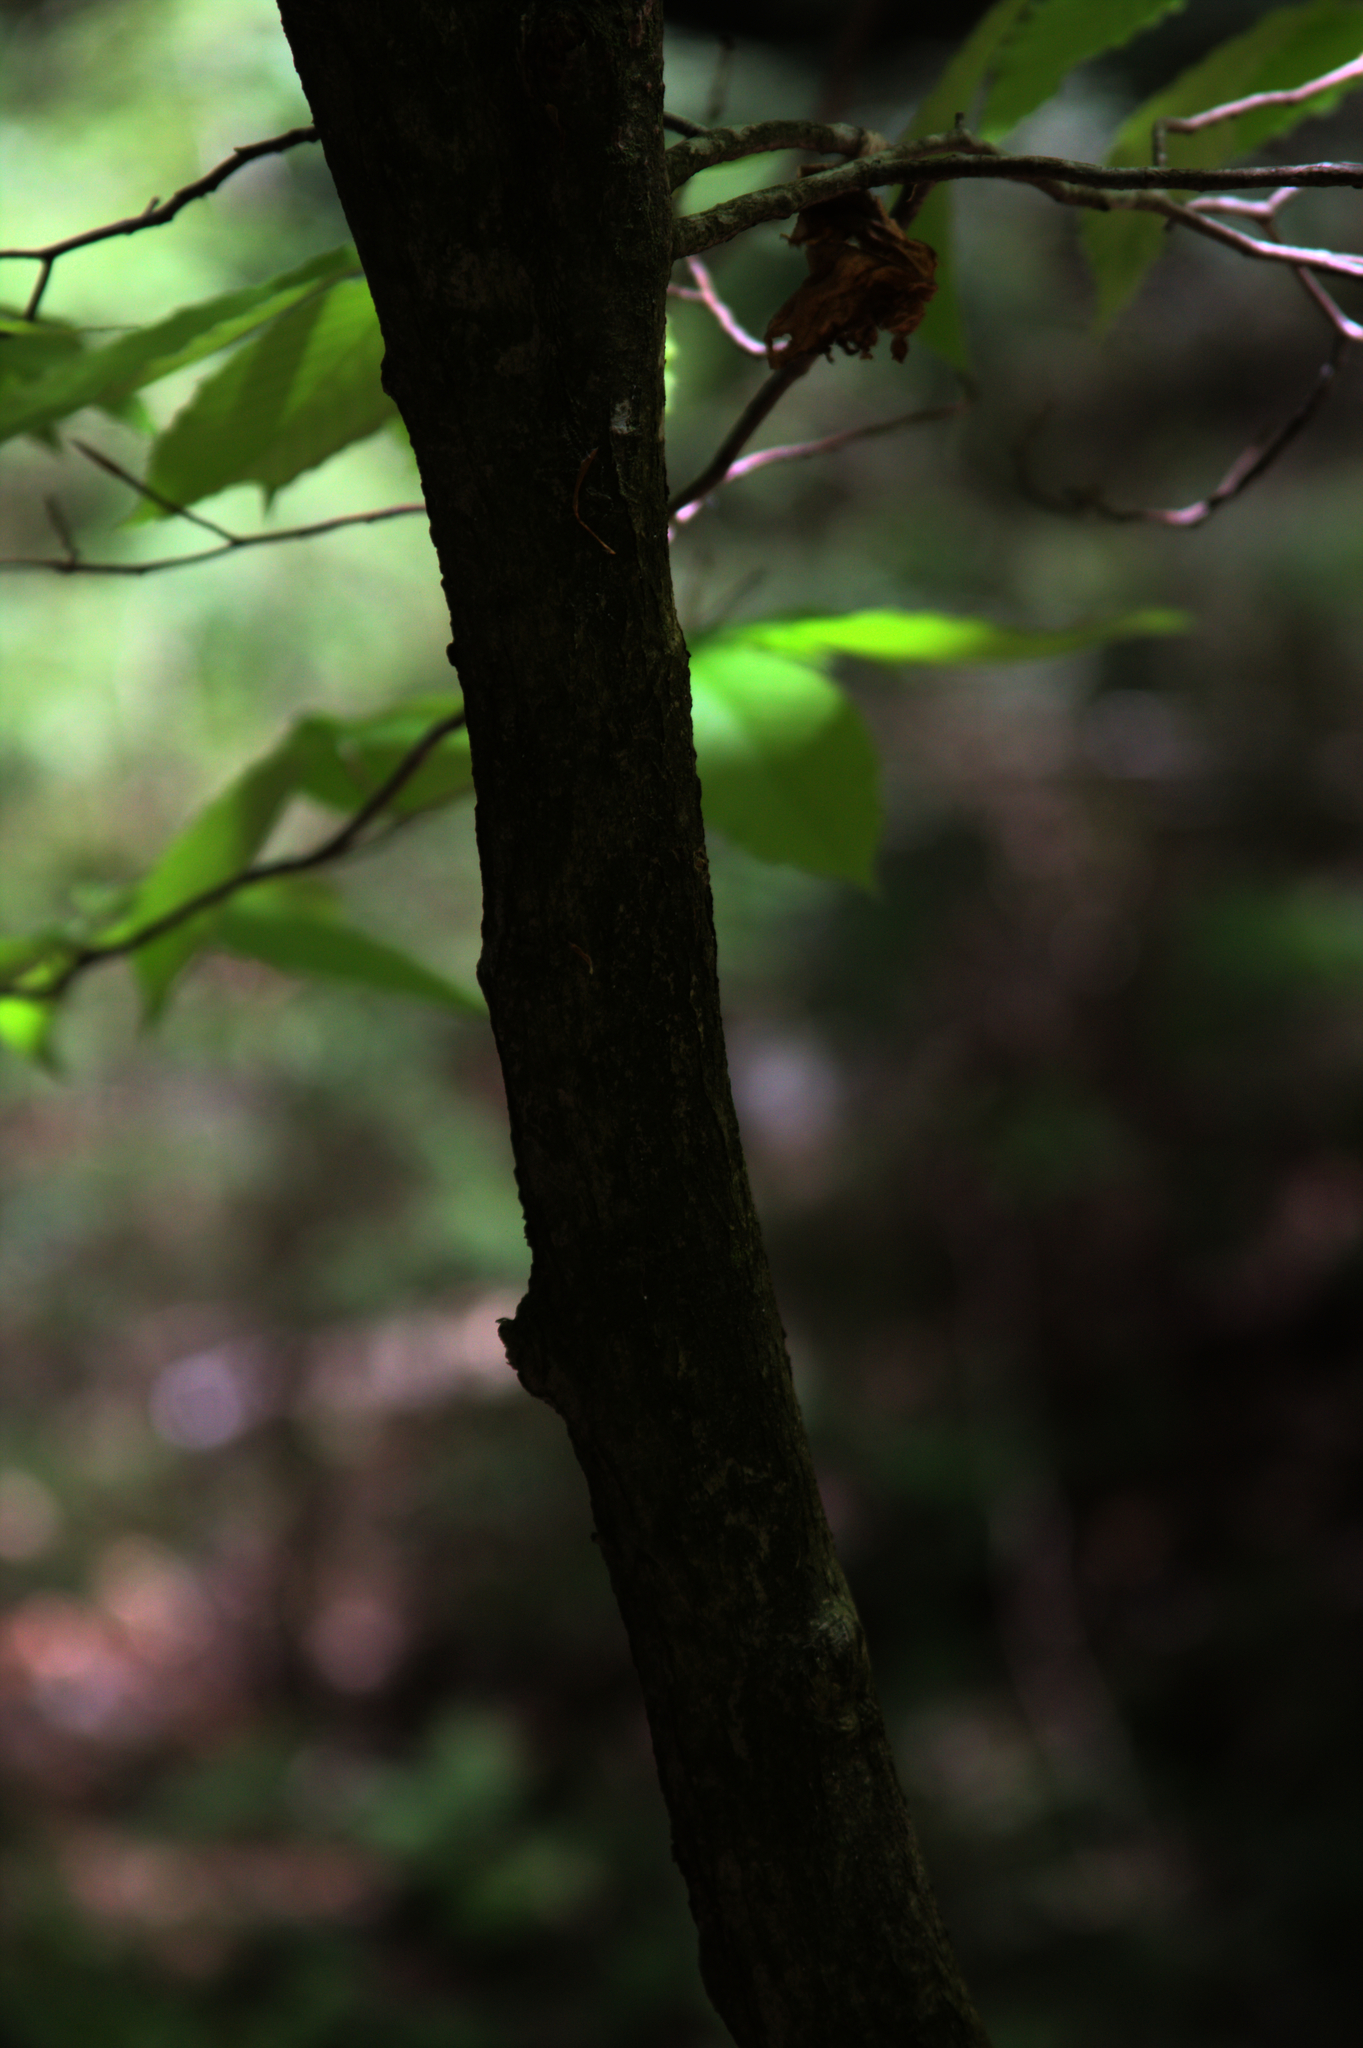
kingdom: Plantae
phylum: Tracheophyta
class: Magnoliopsida
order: Fagales
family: Fagaceae
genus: Fagus
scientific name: Fagus grandifolia
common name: American beech
